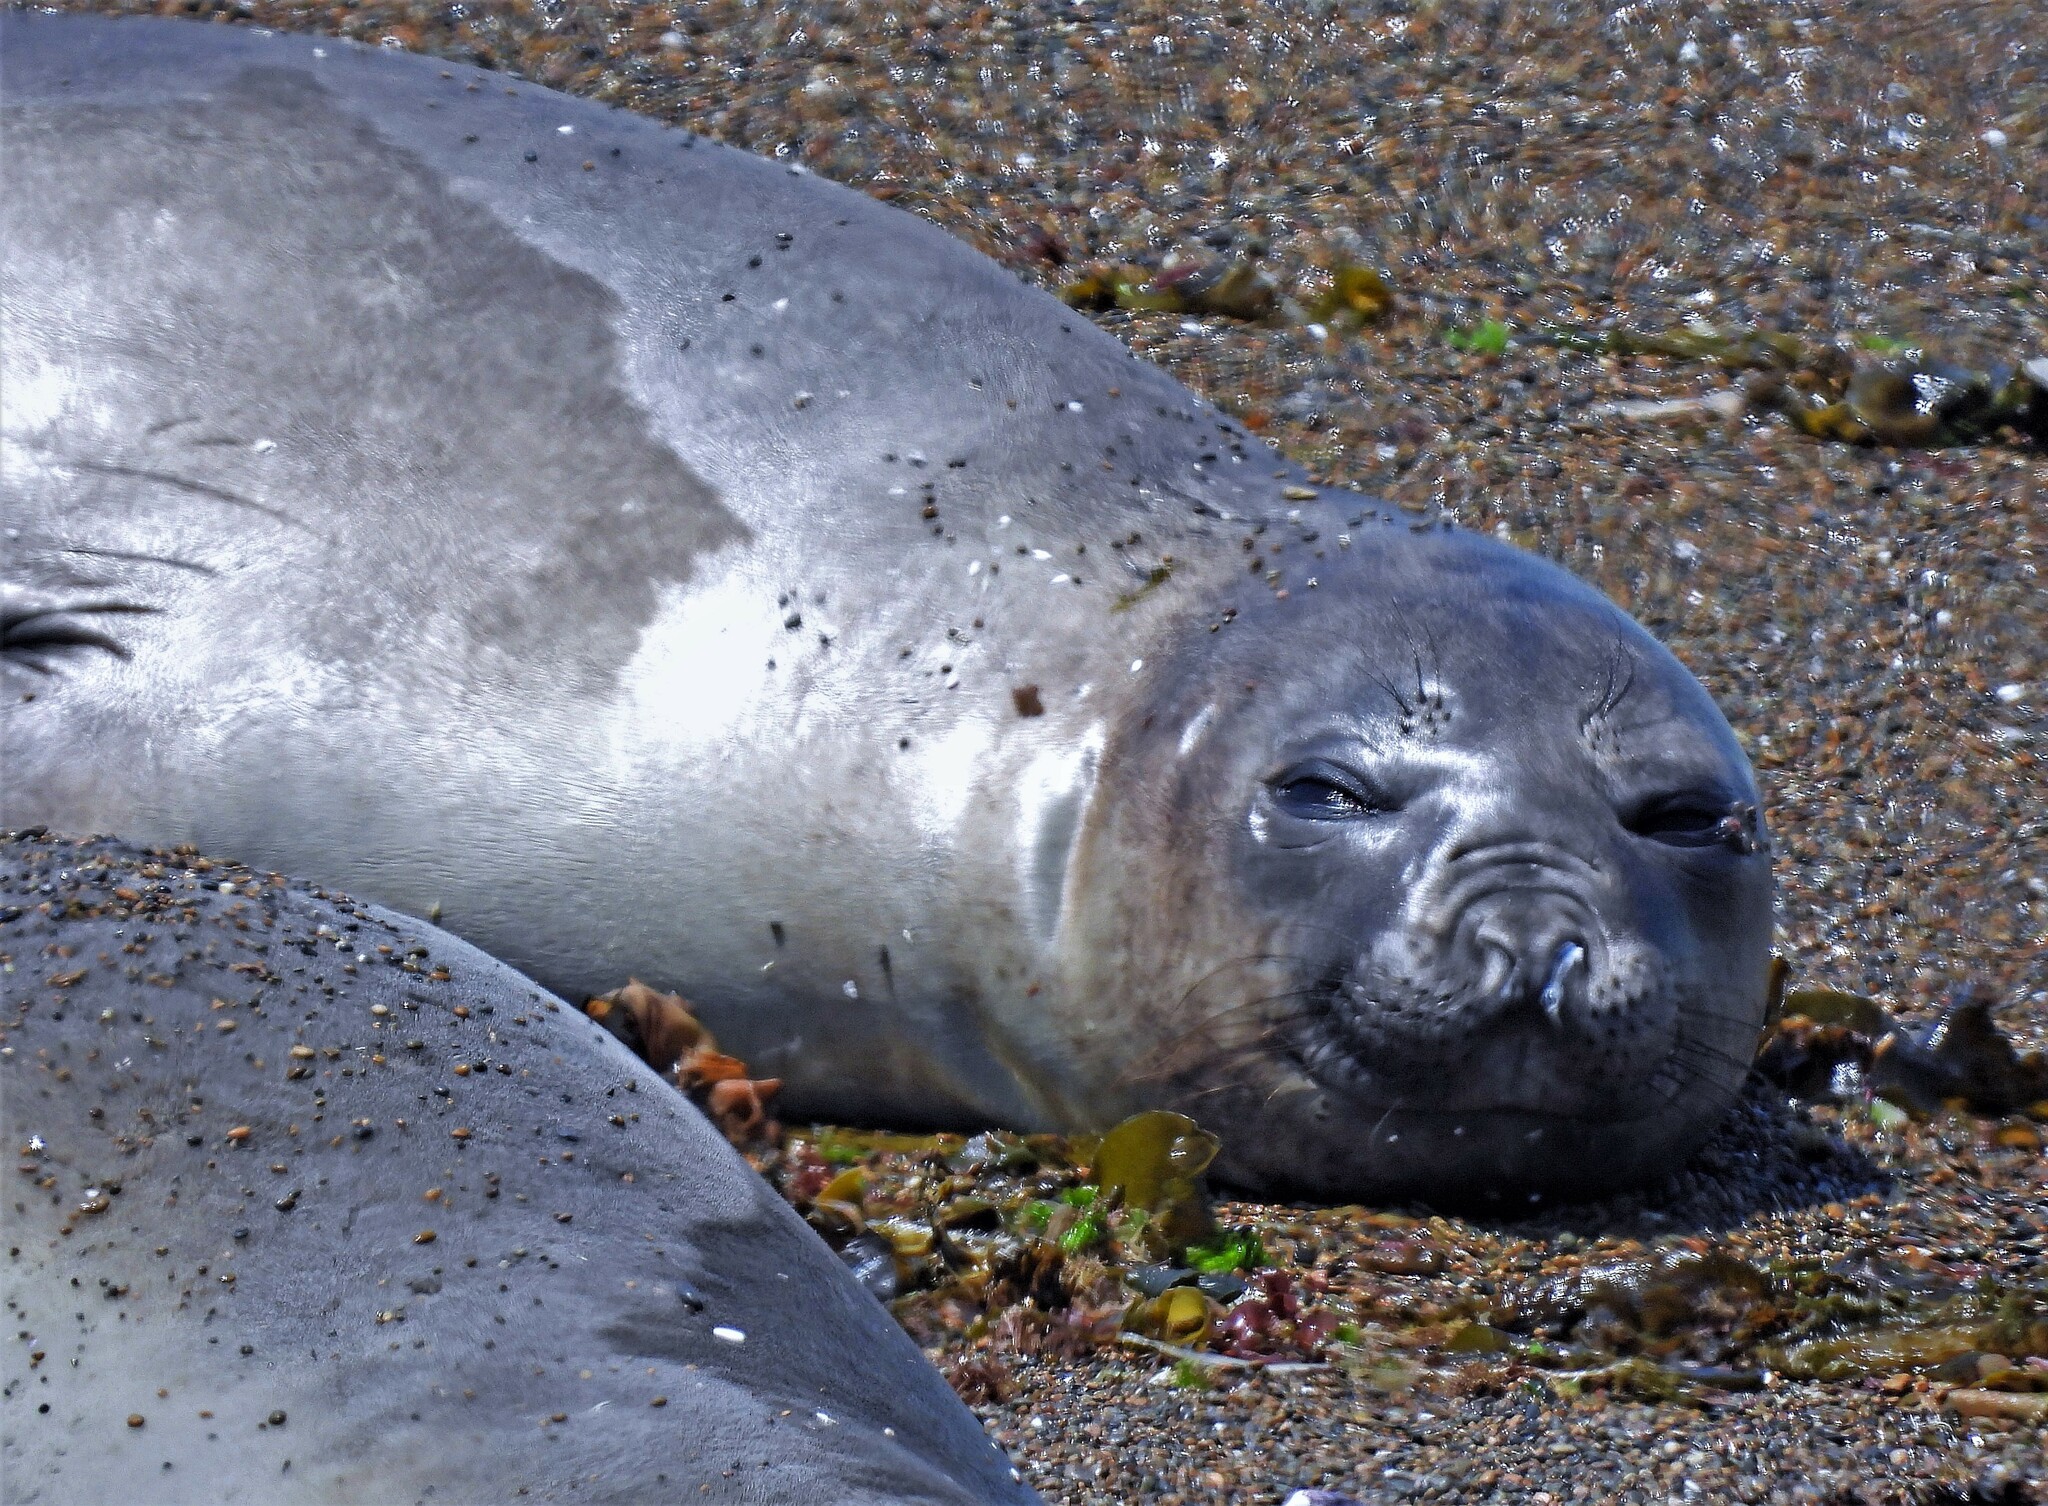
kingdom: Animalia
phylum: Chordata
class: Mammalia
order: Carnivora
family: Phocidae
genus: Mirounga
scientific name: Mirounga leonina
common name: Southern elephant seal
